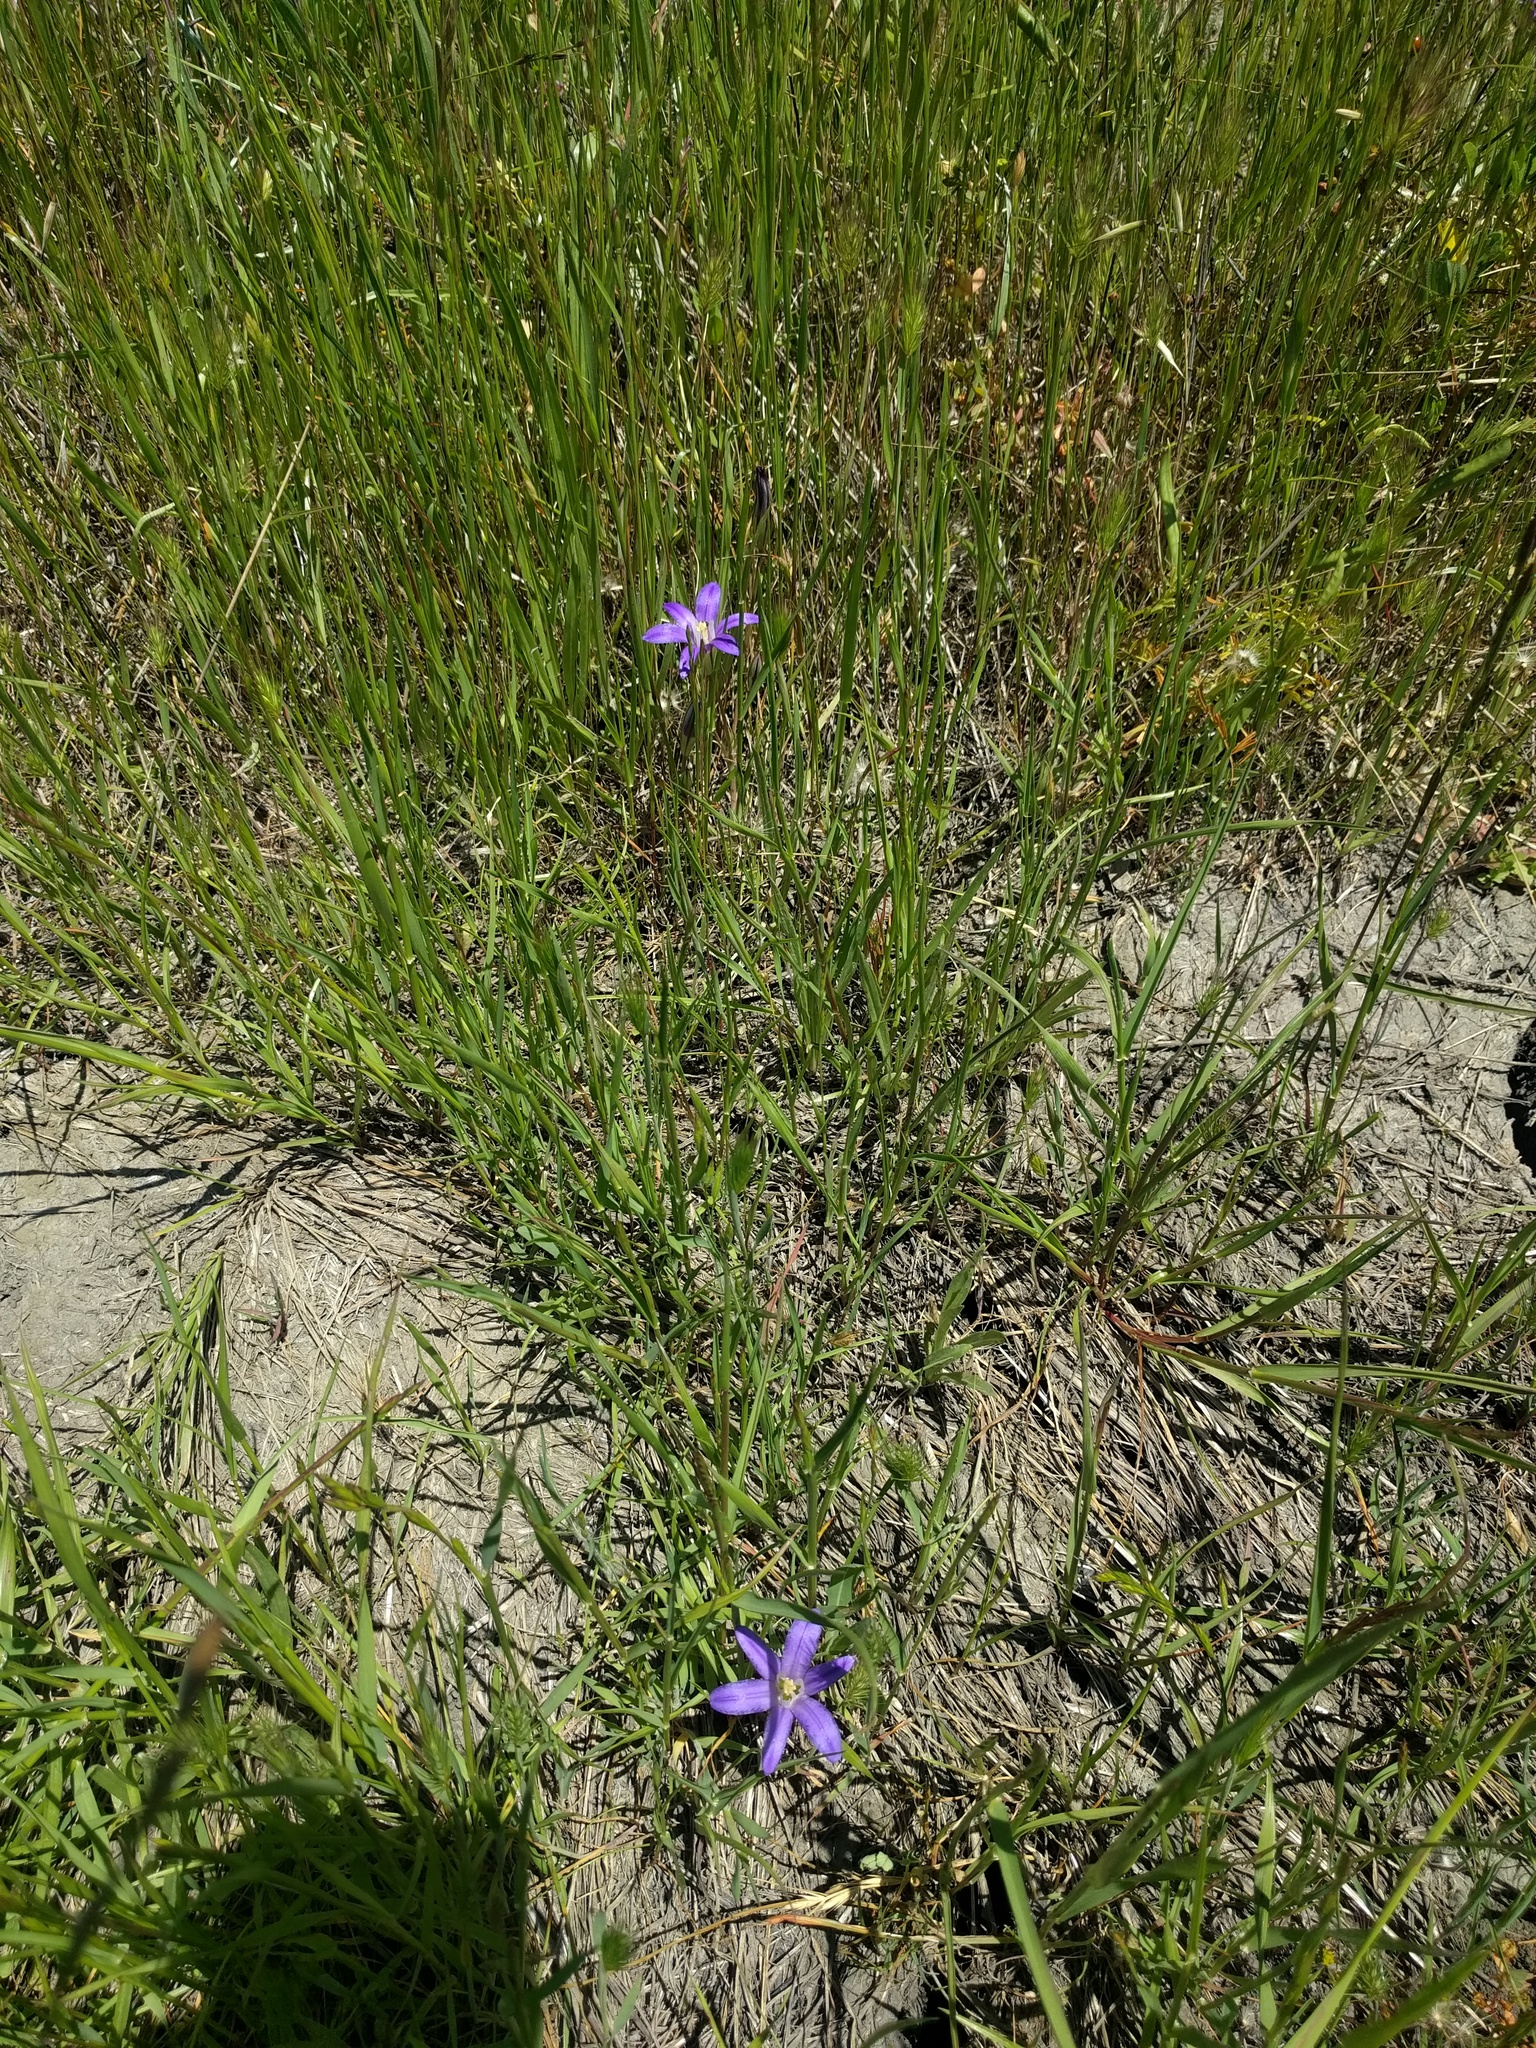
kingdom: Plantae
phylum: Tracheophyta
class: Liliopsida
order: Asparagales
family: Asparagaceae
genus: Brodiaea
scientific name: Brodiaea terrestris
